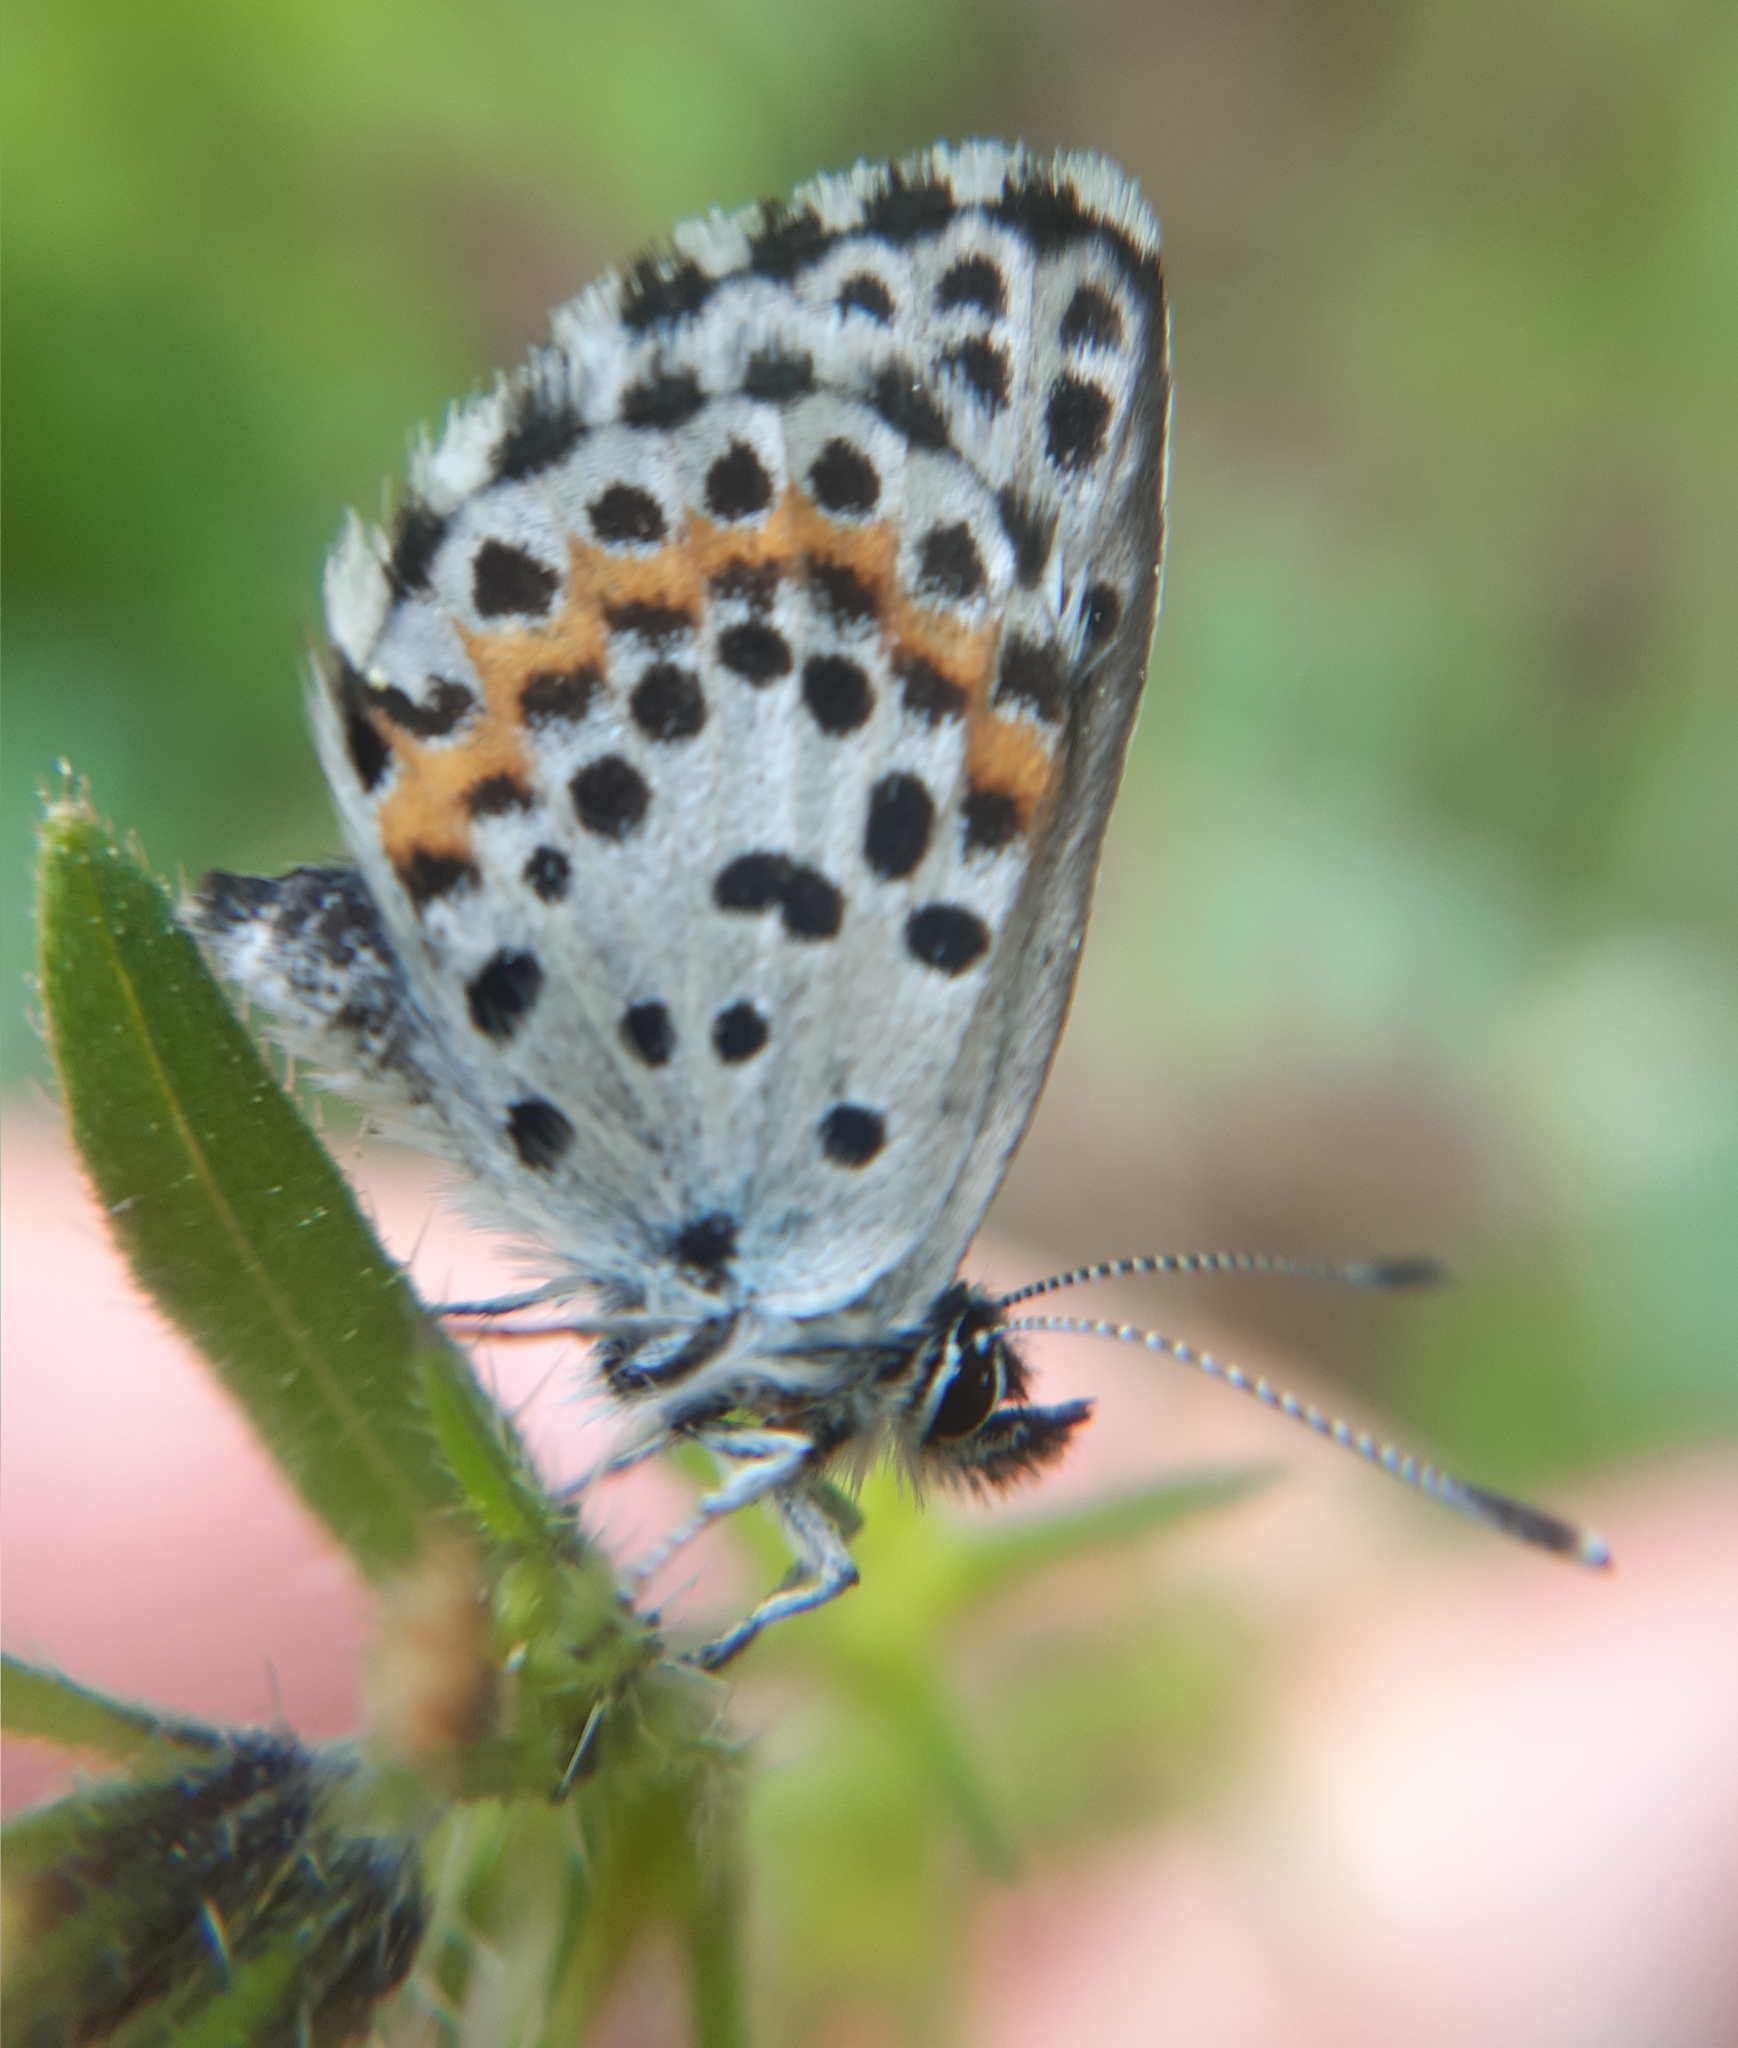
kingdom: Animalia
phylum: Arthropoda
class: Insecta
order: Lepidoptera
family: Lycaenidae
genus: Scolitantides
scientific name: Scolitantides orion
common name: Chequered blue
